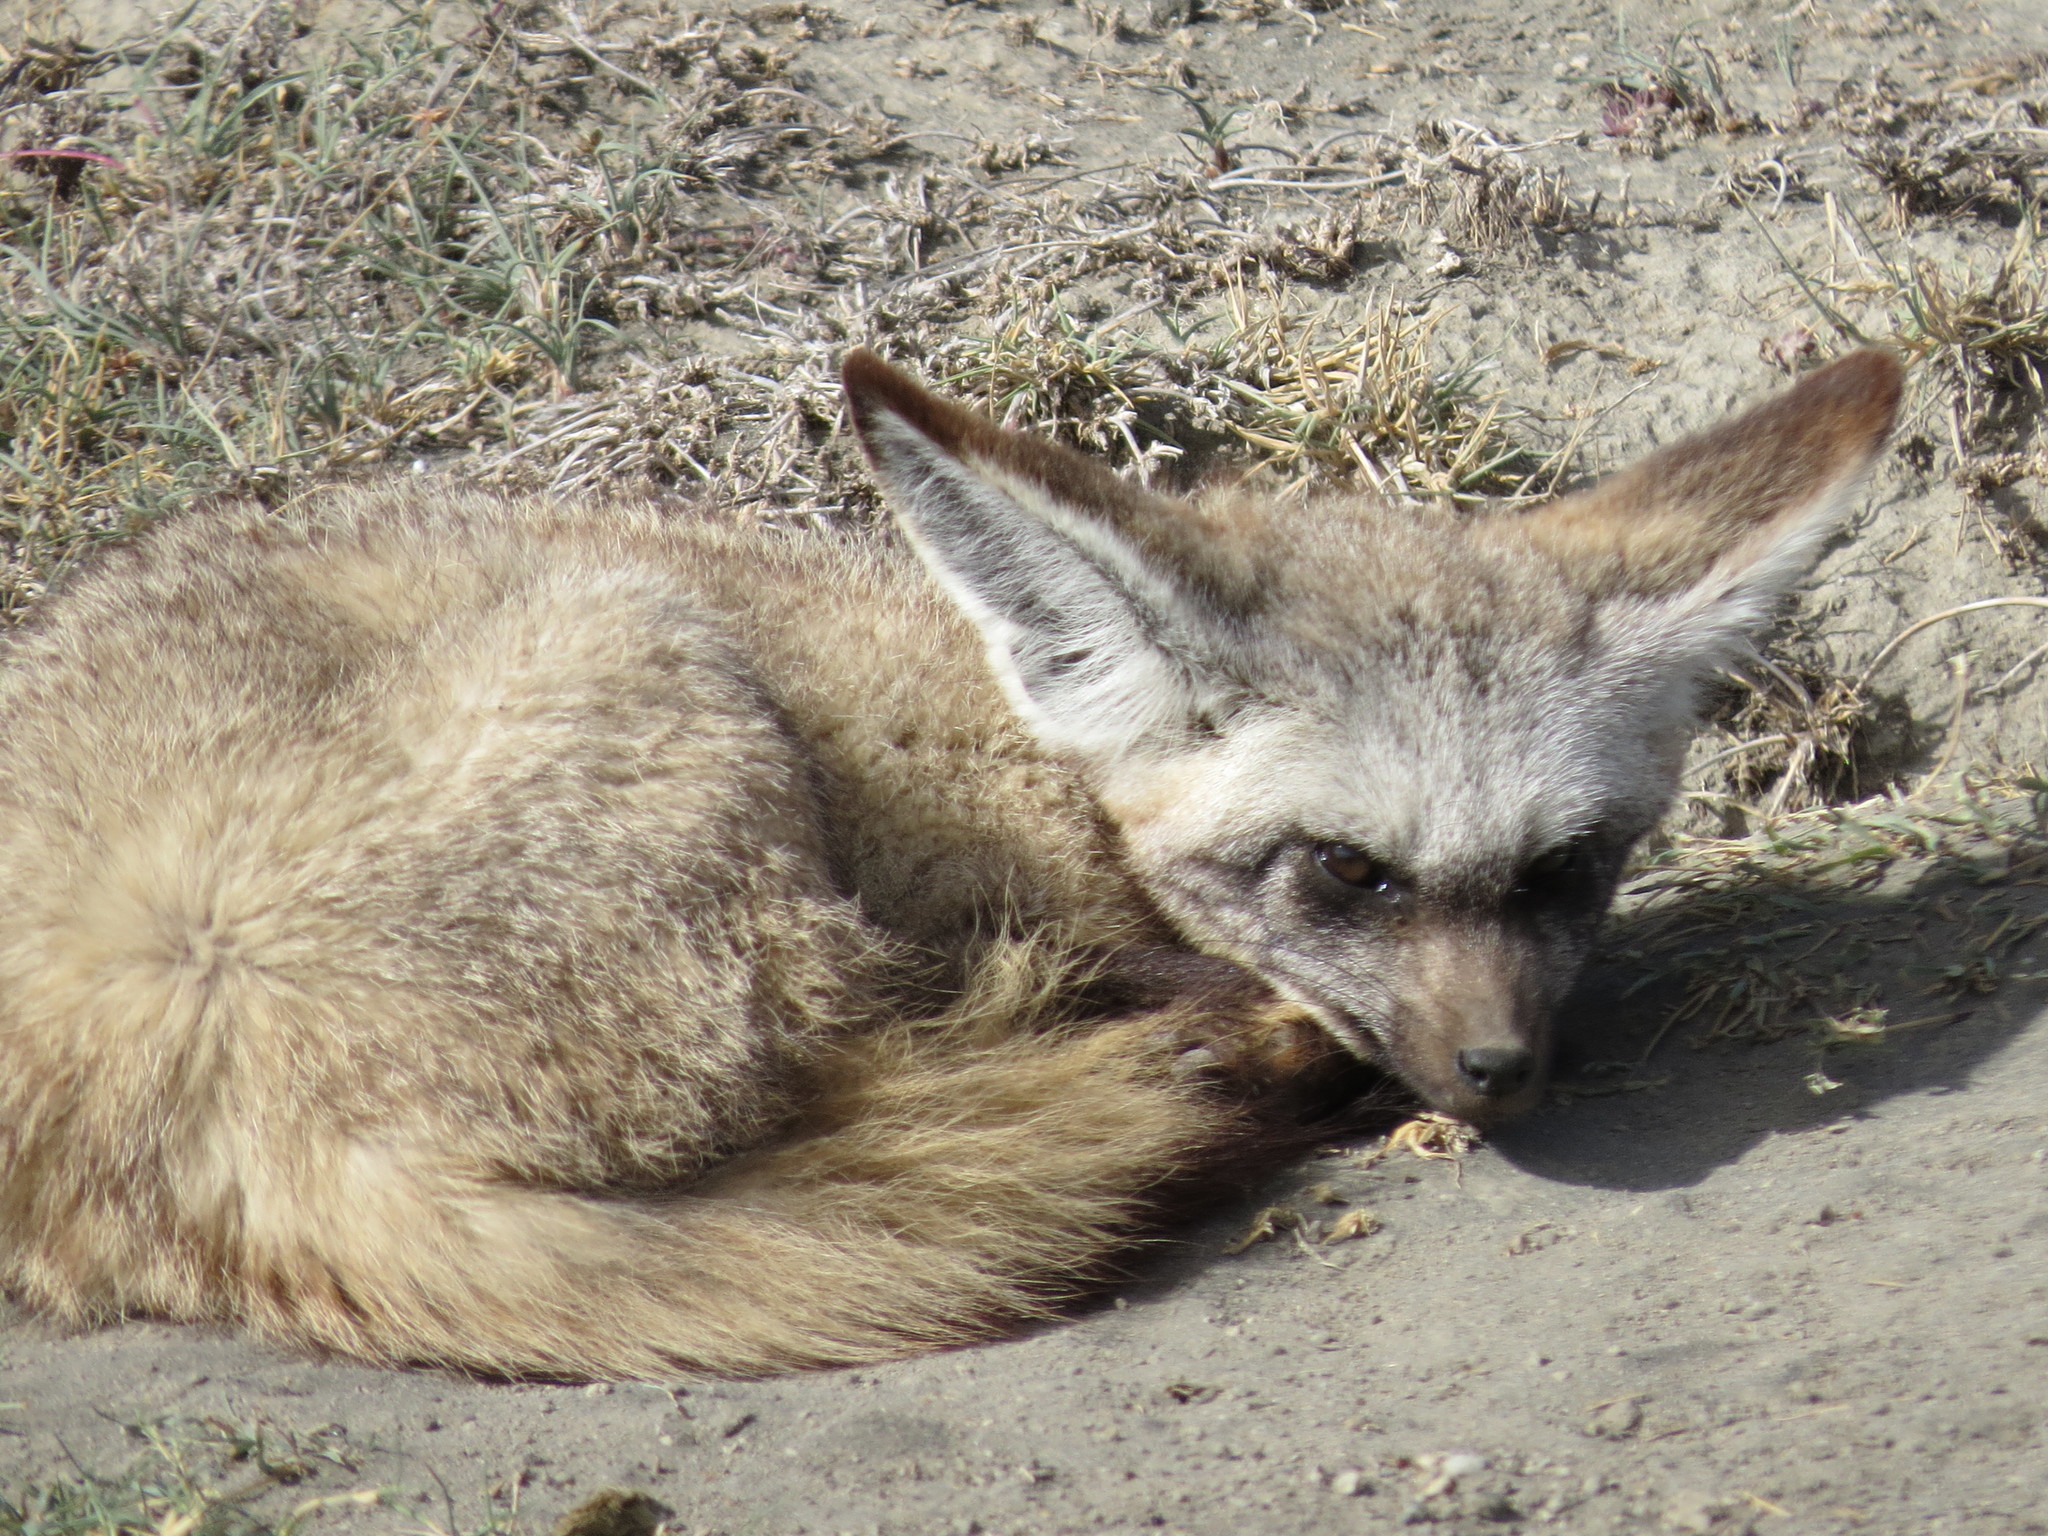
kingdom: Animalia
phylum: Chordata
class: Mammalia
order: Carnivora
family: Canidae
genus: Otocyon
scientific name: Otocyon megalotis
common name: Bat-eared fox
